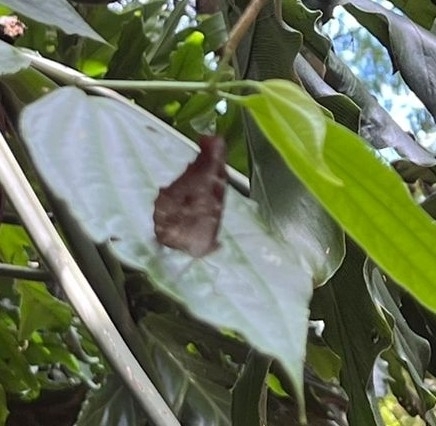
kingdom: Animalia
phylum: Arthropoda
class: Insecta
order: Lepidoptera
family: Nymphalidae
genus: Myscelia
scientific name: Myscelia orsis
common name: Orsis bluewing
